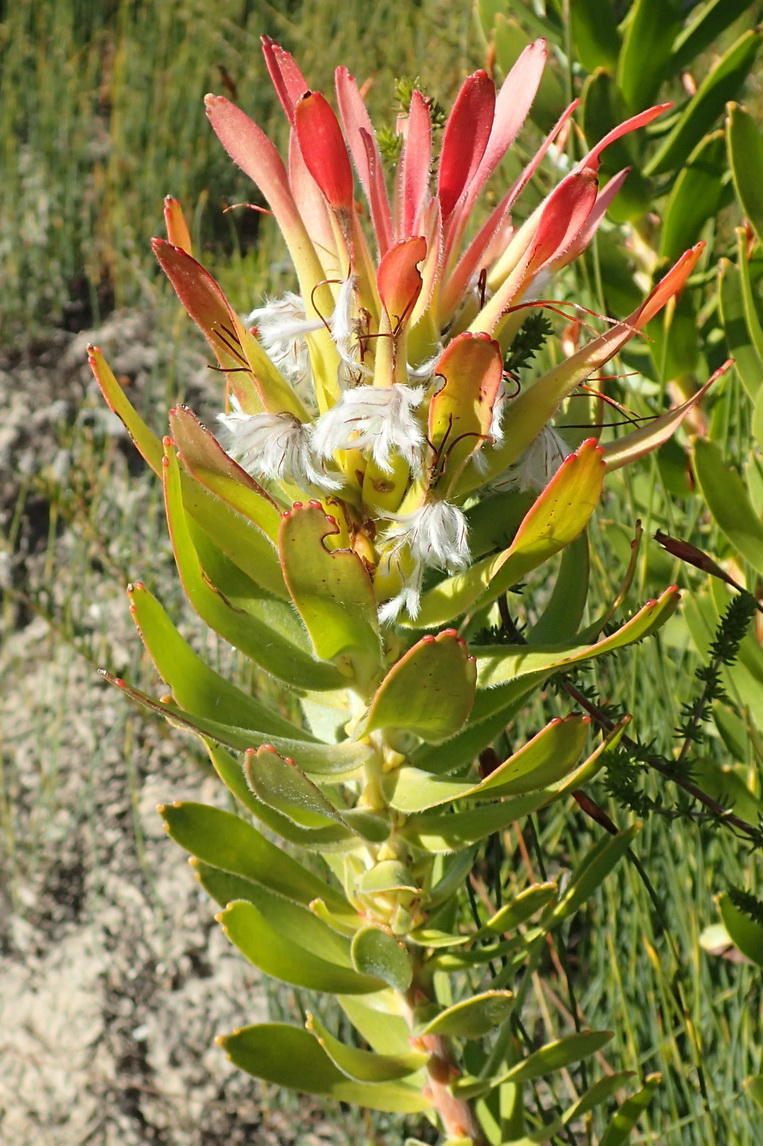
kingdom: Plantae
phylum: Tracheophyta
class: Magnoliopsida
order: Proteales
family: Proteaceae
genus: Mimetes
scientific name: Mimetes cucullatus
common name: Common pagoda
